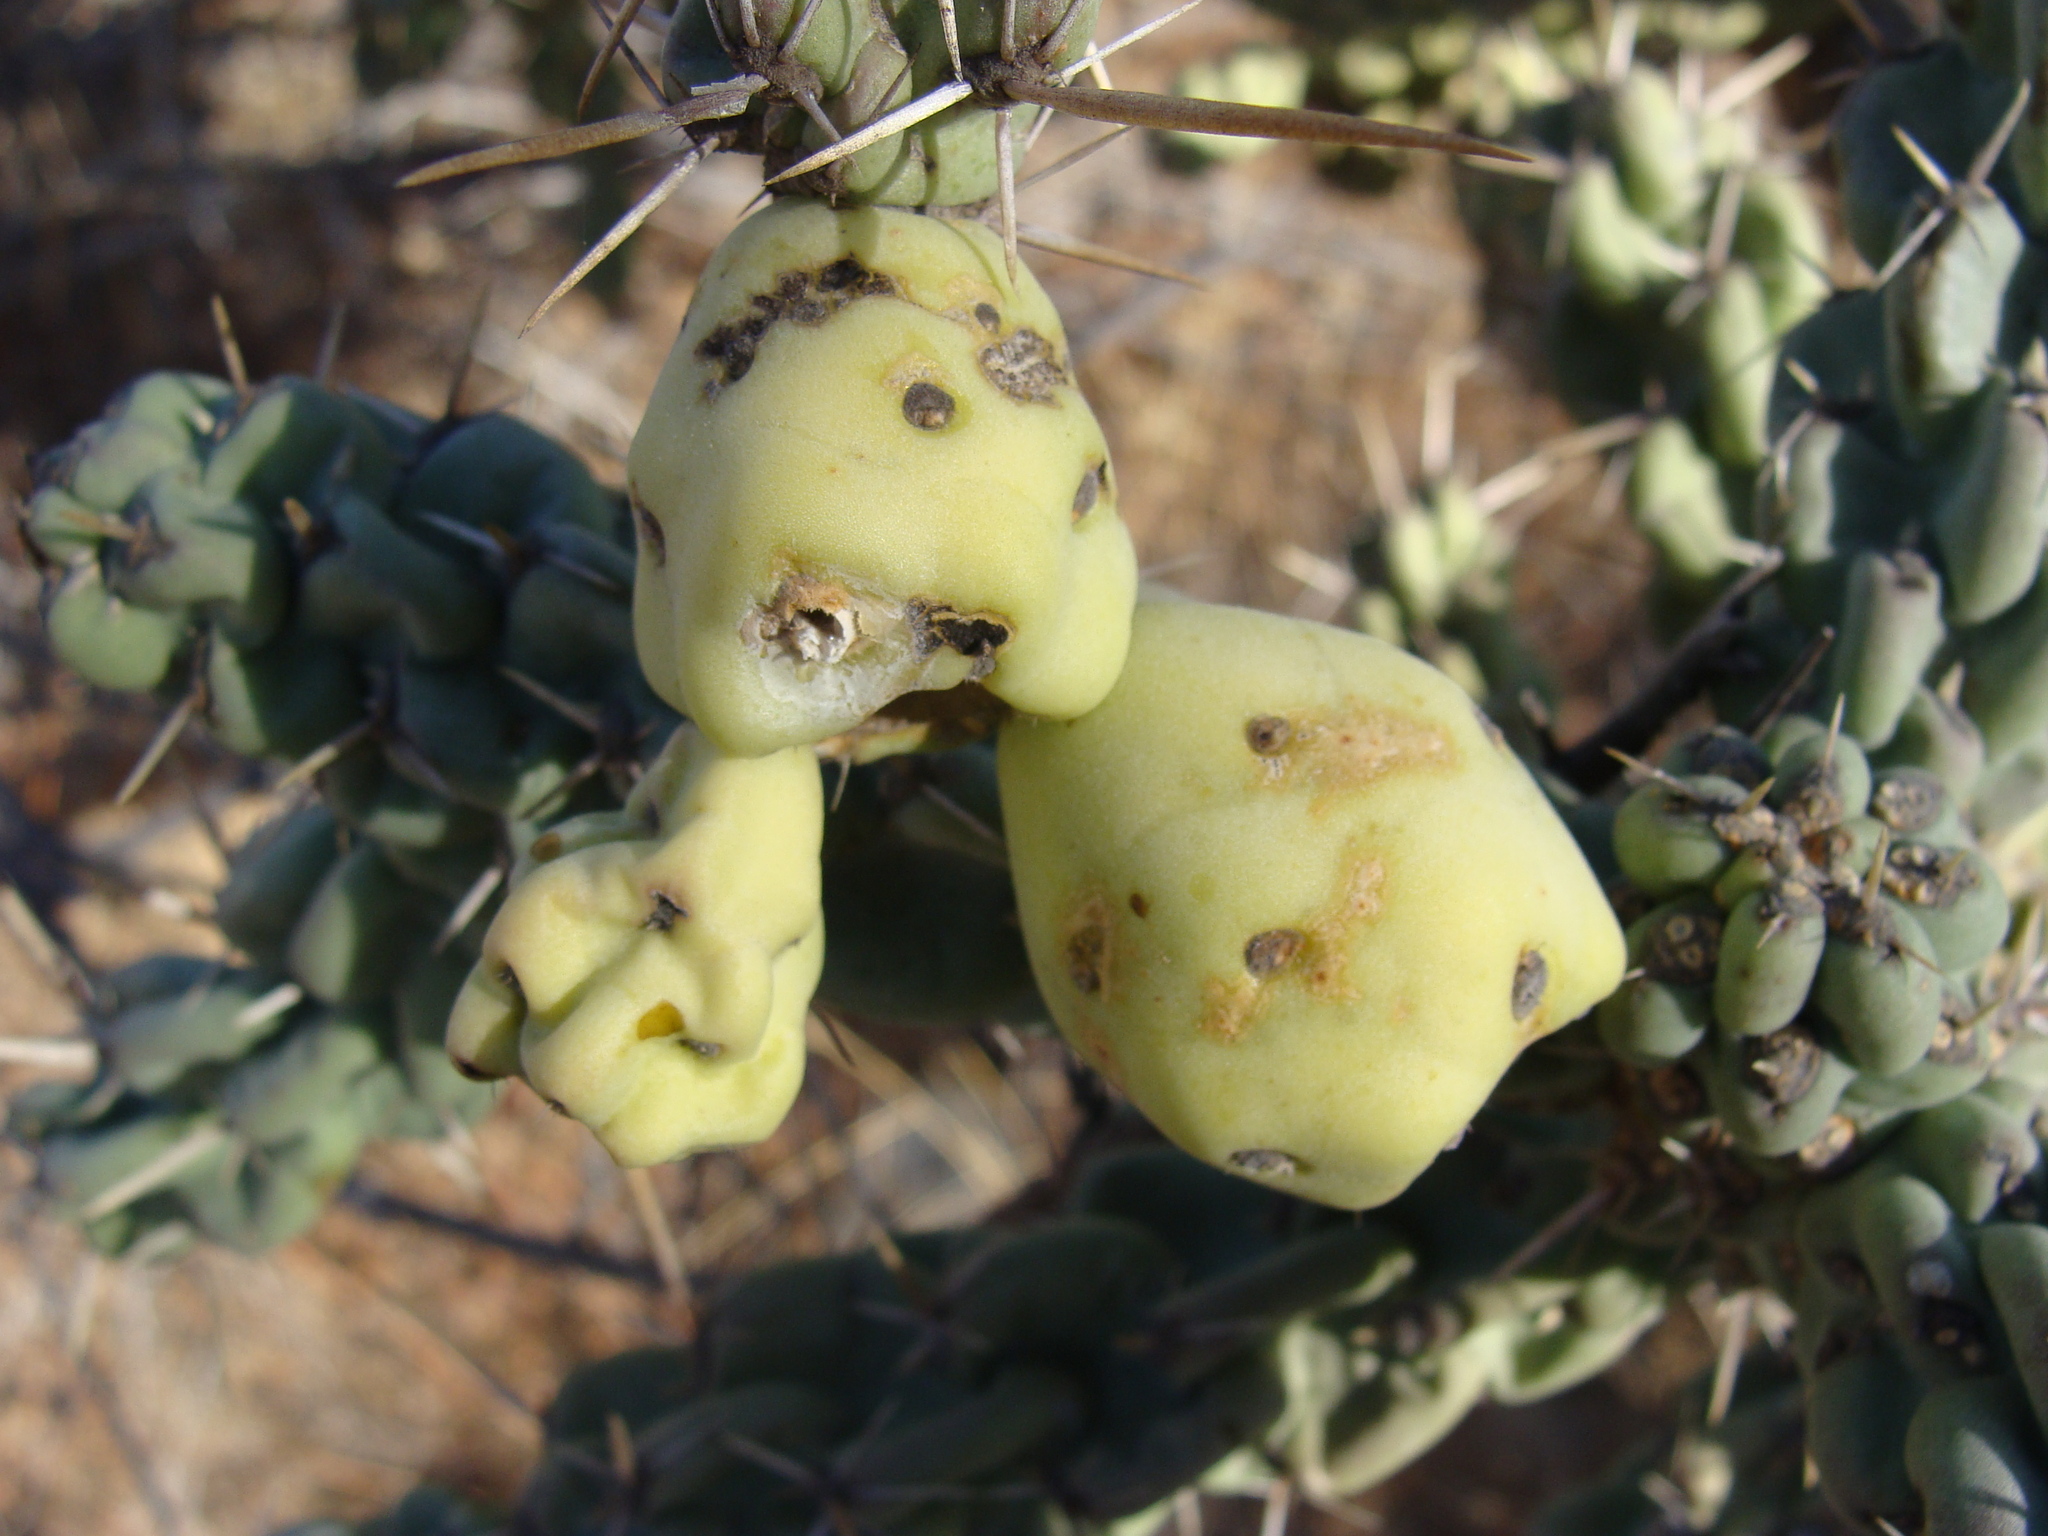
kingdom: Plantae
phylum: Tracheophyta
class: Magnoliopsida
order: Caryophyllales
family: Cactaceae
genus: Cylindropuntia
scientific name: Cylindropuntia cholla
